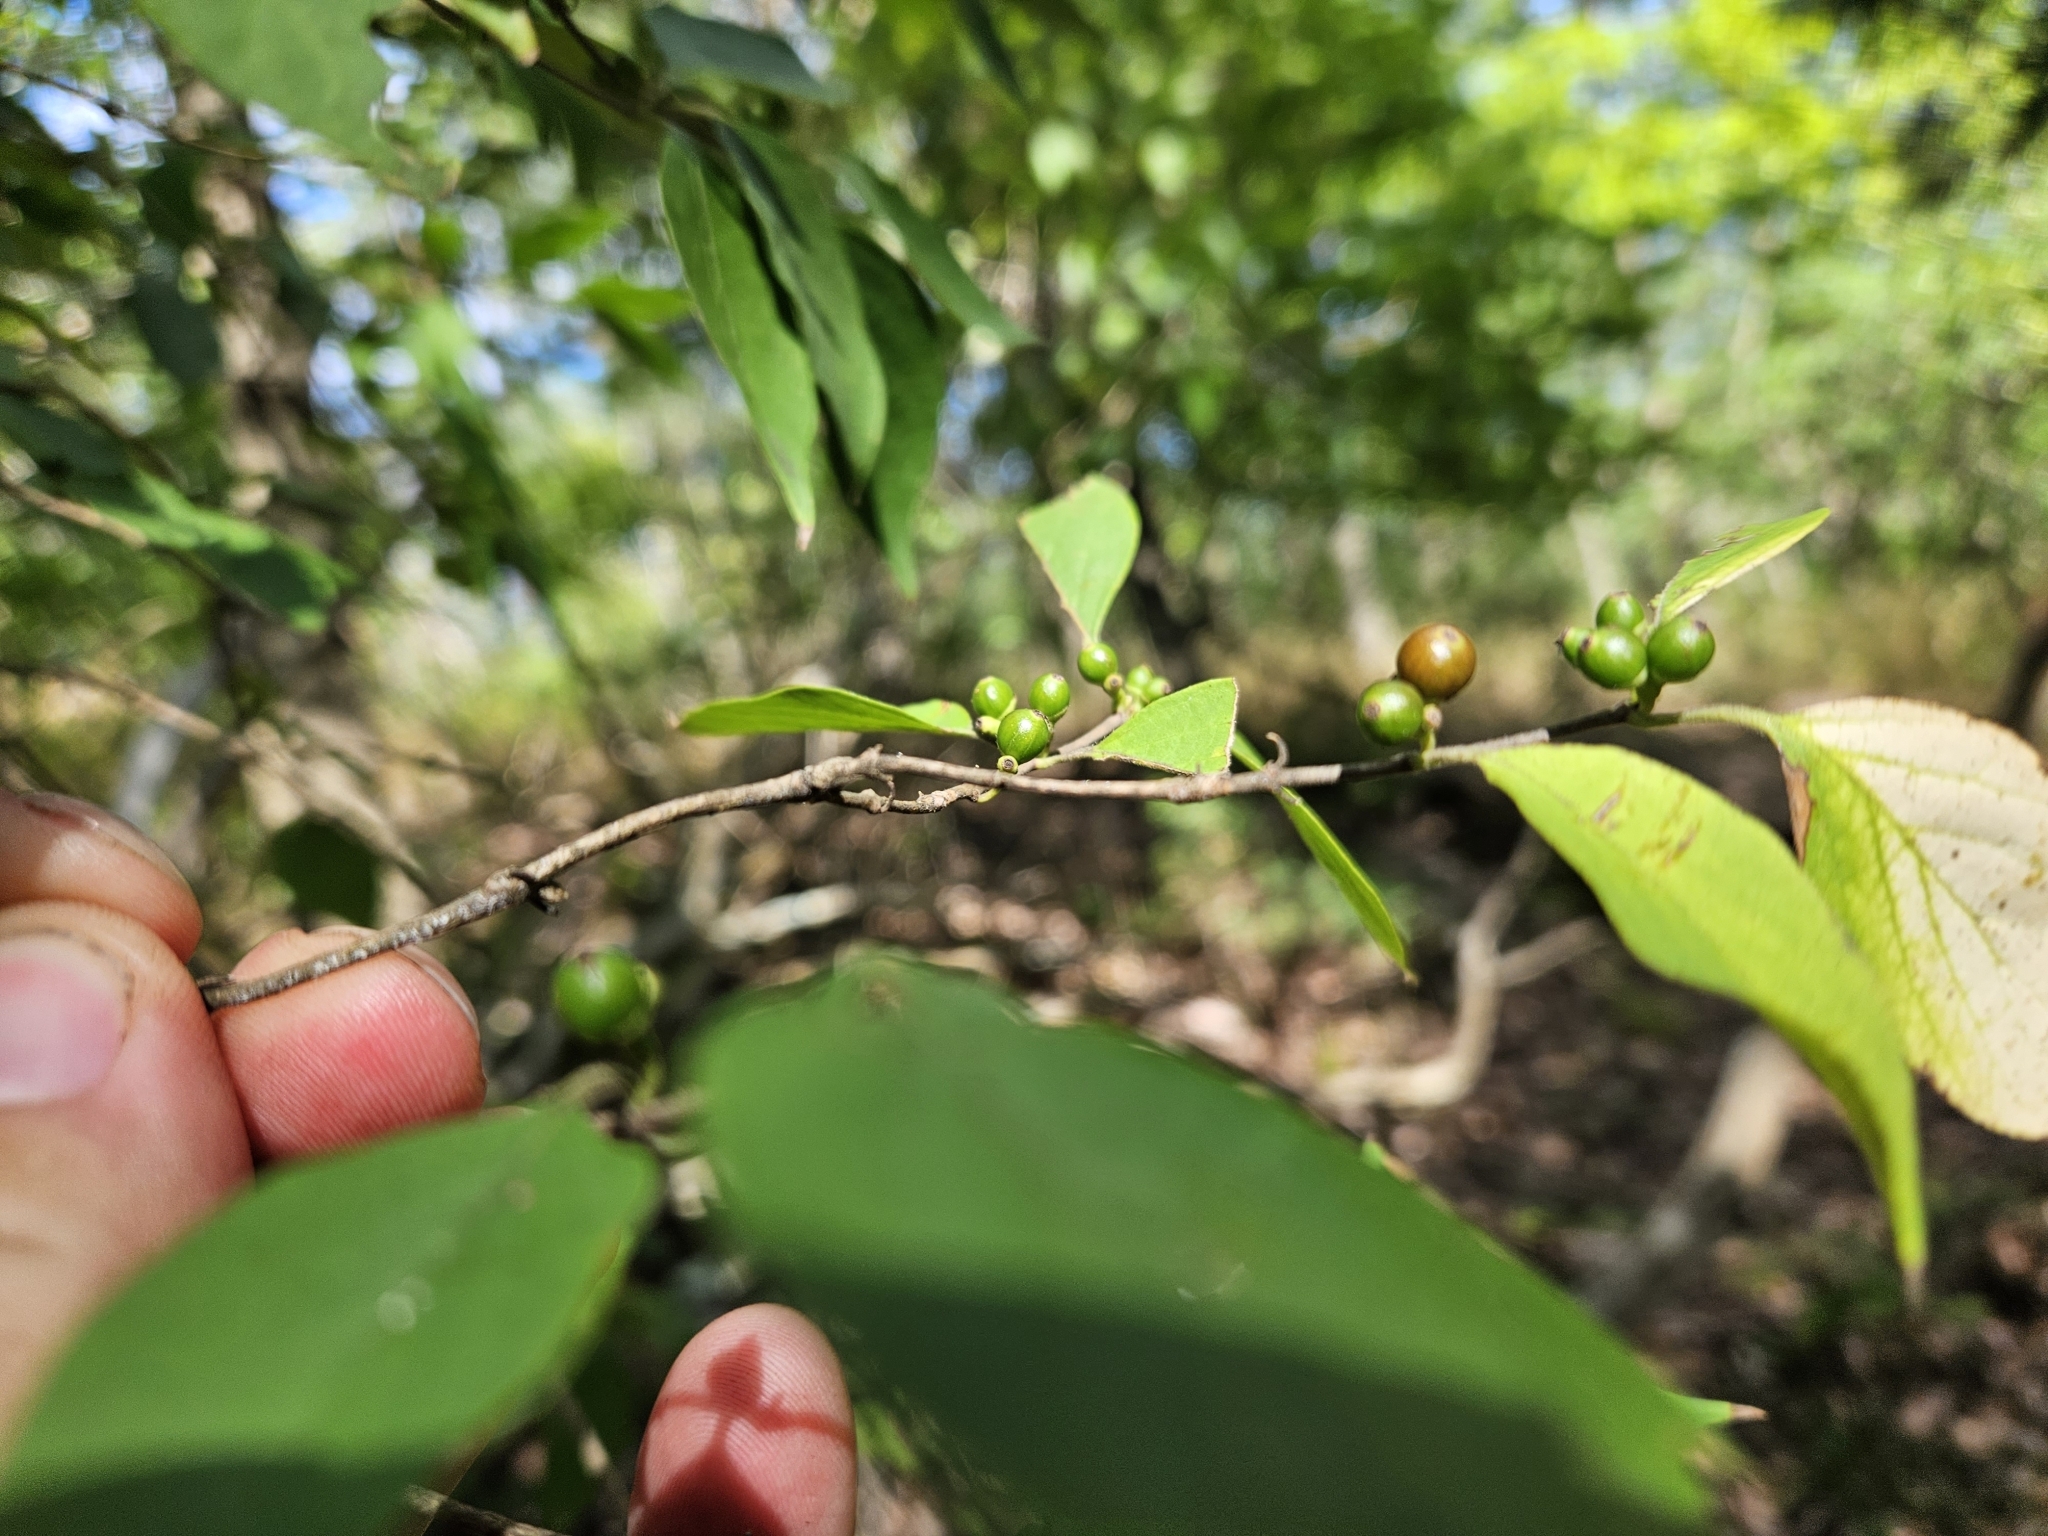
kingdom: Plantae
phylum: Tracheophyta
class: Magnoliopsida
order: Dipsacales
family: Caprifoliaceae
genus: Lonicera
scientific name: Lonicera maackii
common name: Amur honeysuckle
